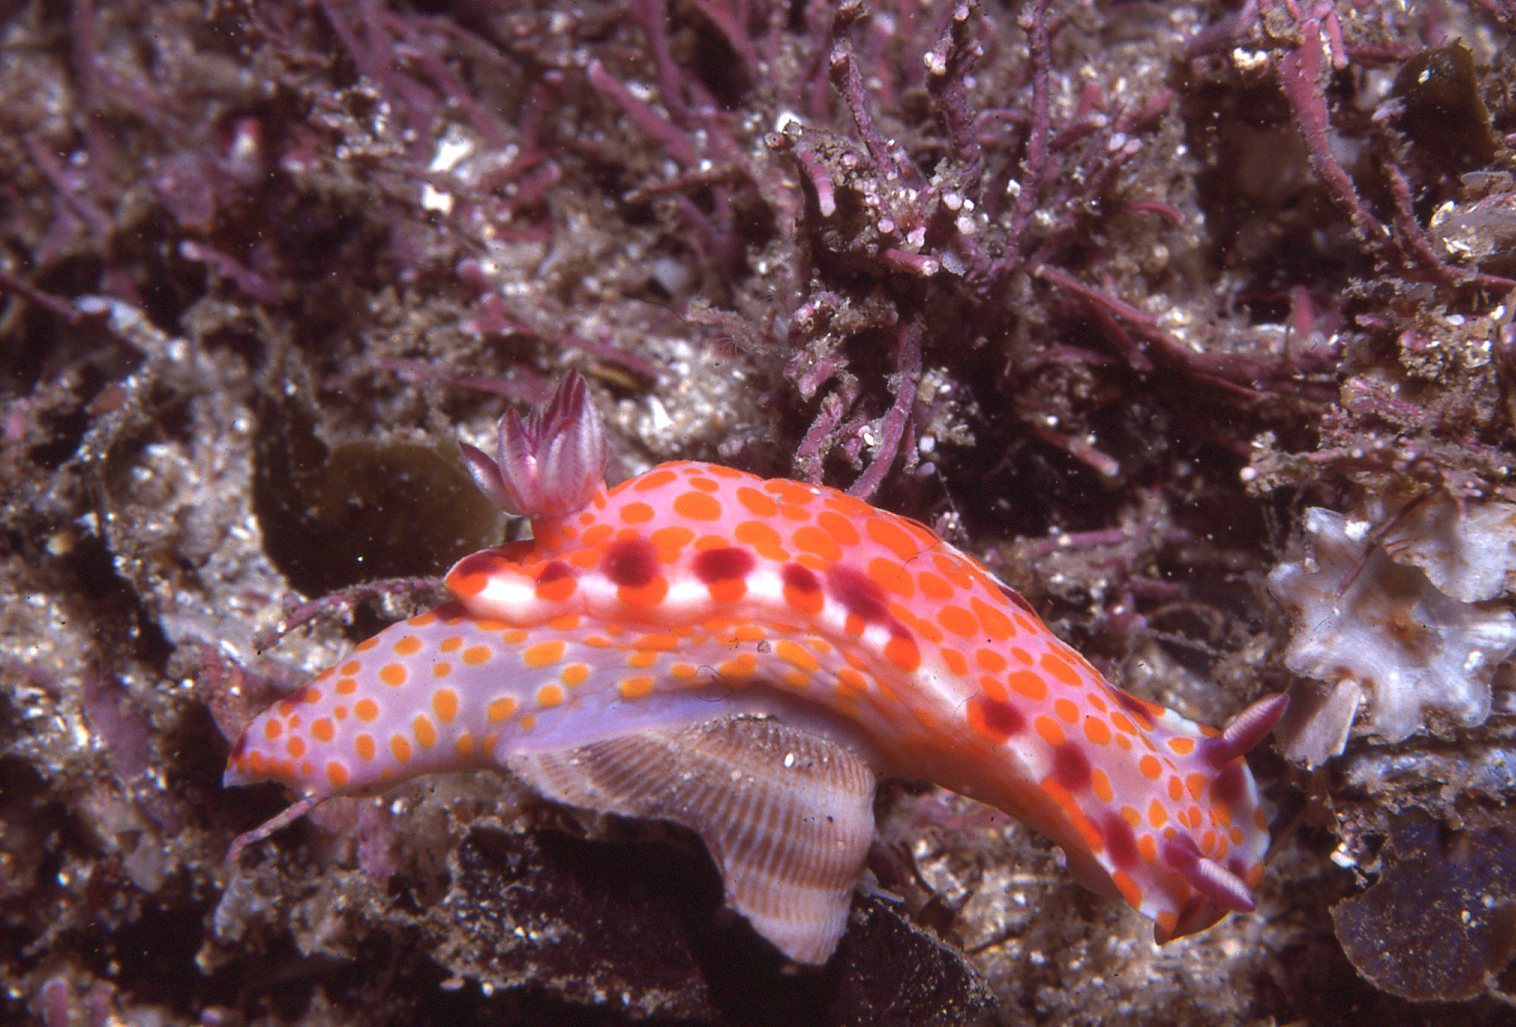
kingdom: Animalia
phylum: Mollusca
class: Gastropoda
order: Nudibranchia
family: Chromodorididae
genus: Ceratosoma
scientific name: Ceratosoma amoenum
